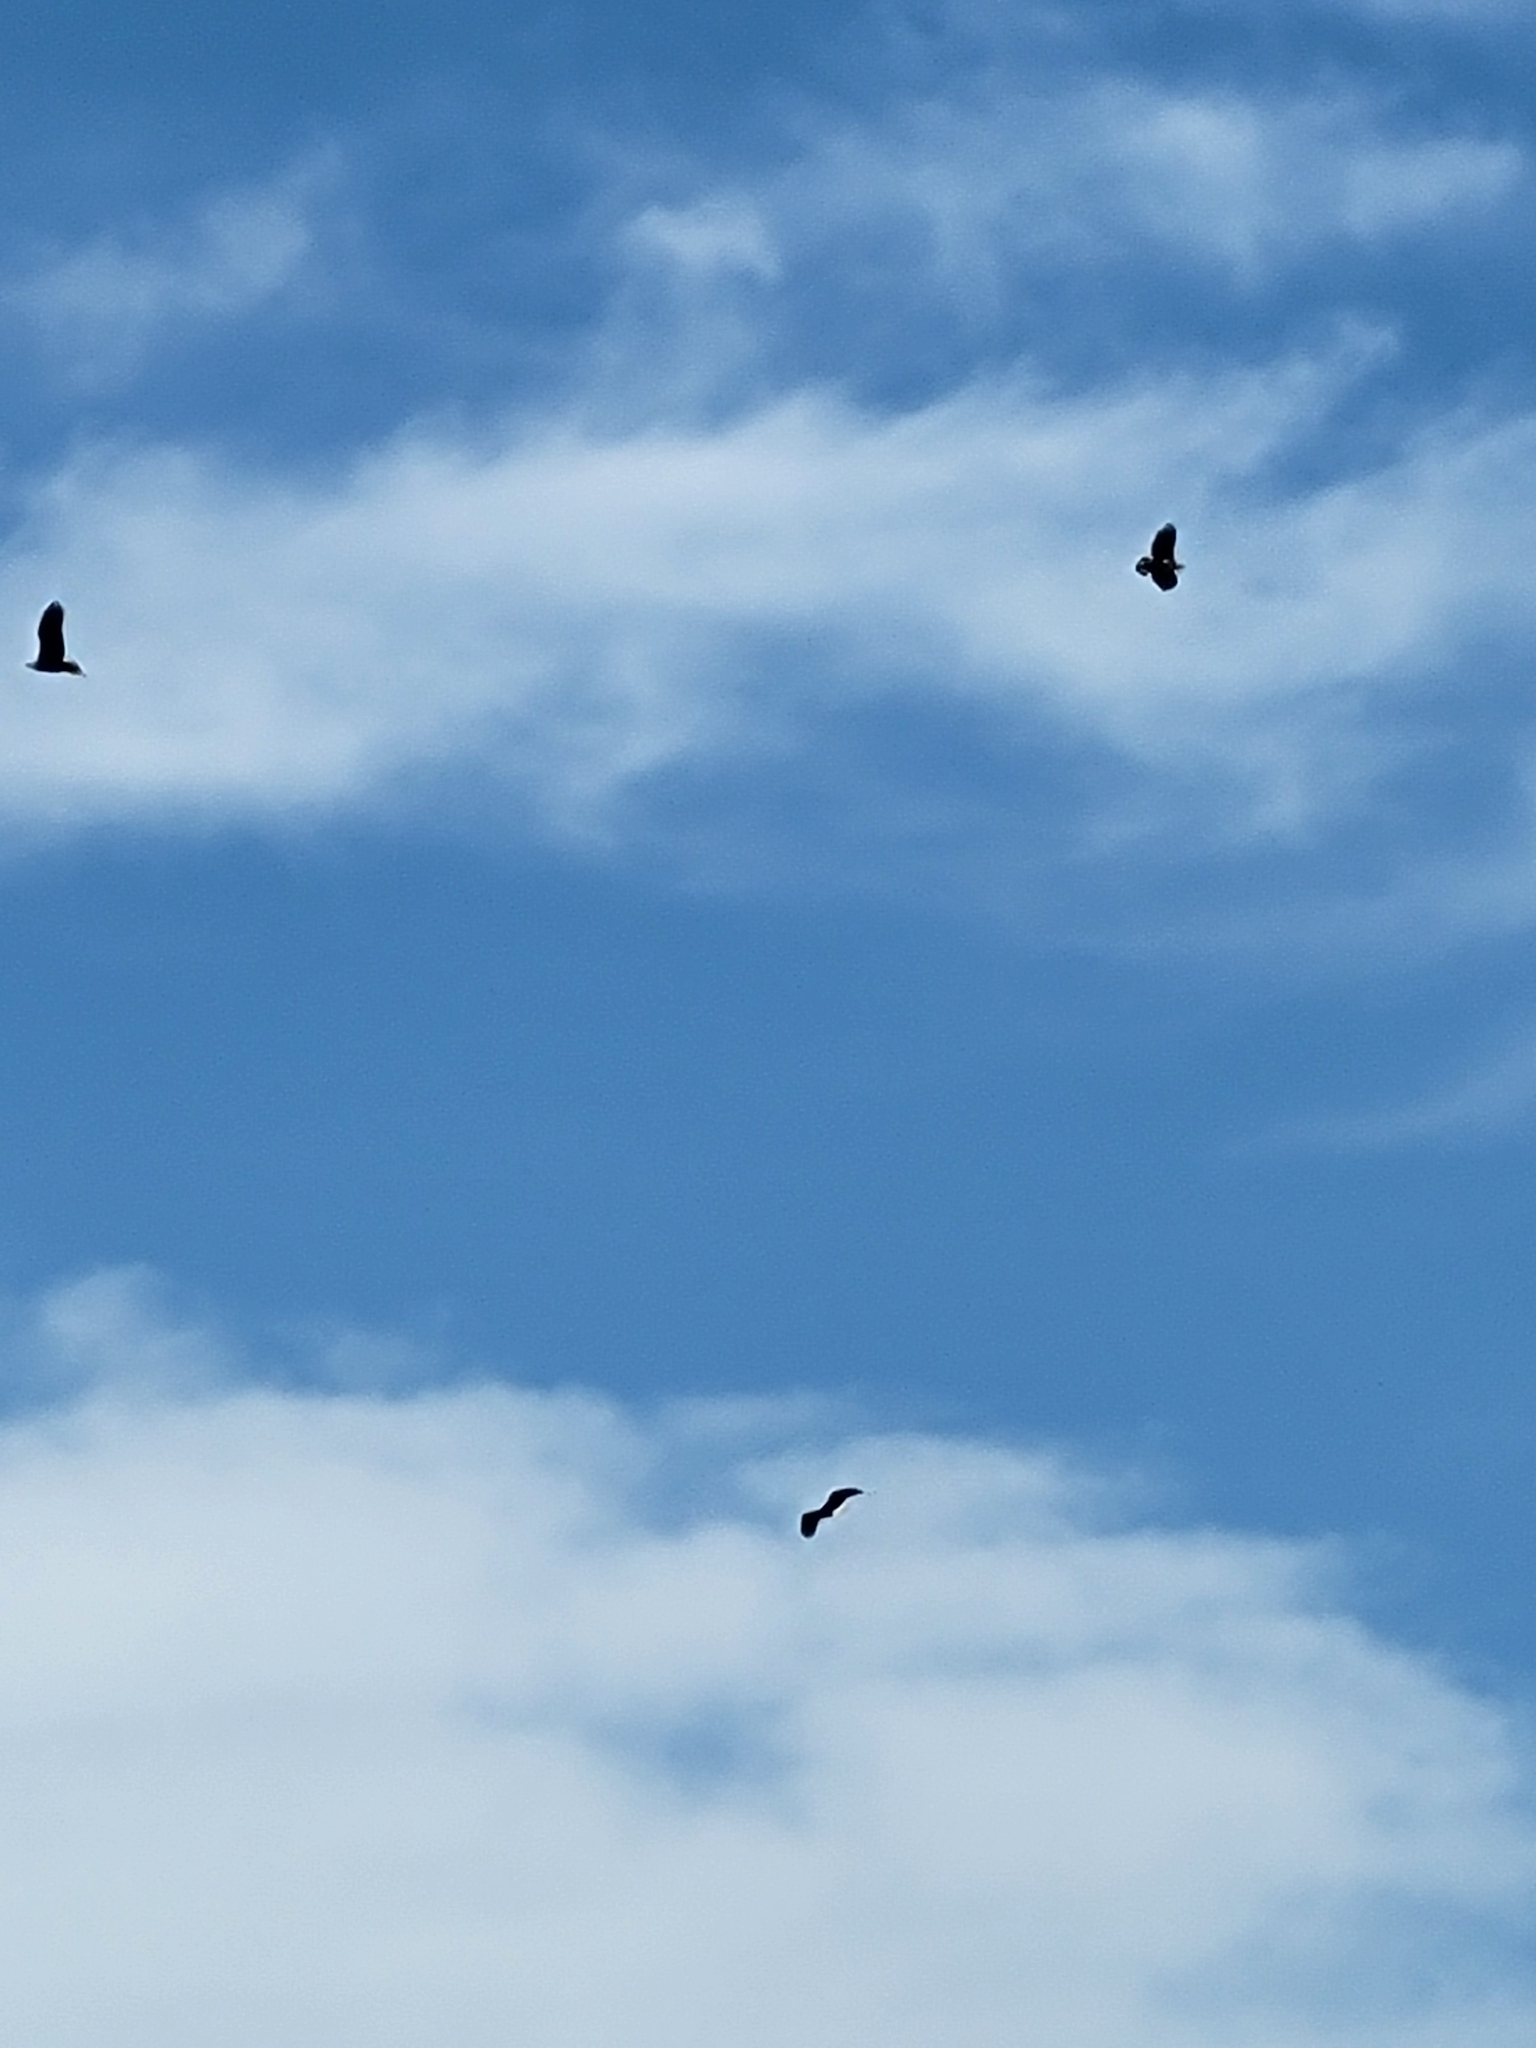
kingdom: Animalia
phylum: Chordata
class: Aves
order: Accipitriformes
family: Accipitridae
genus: Haliaeetus
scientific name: Haliaeetus leucocephalus
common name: Bald eagle
